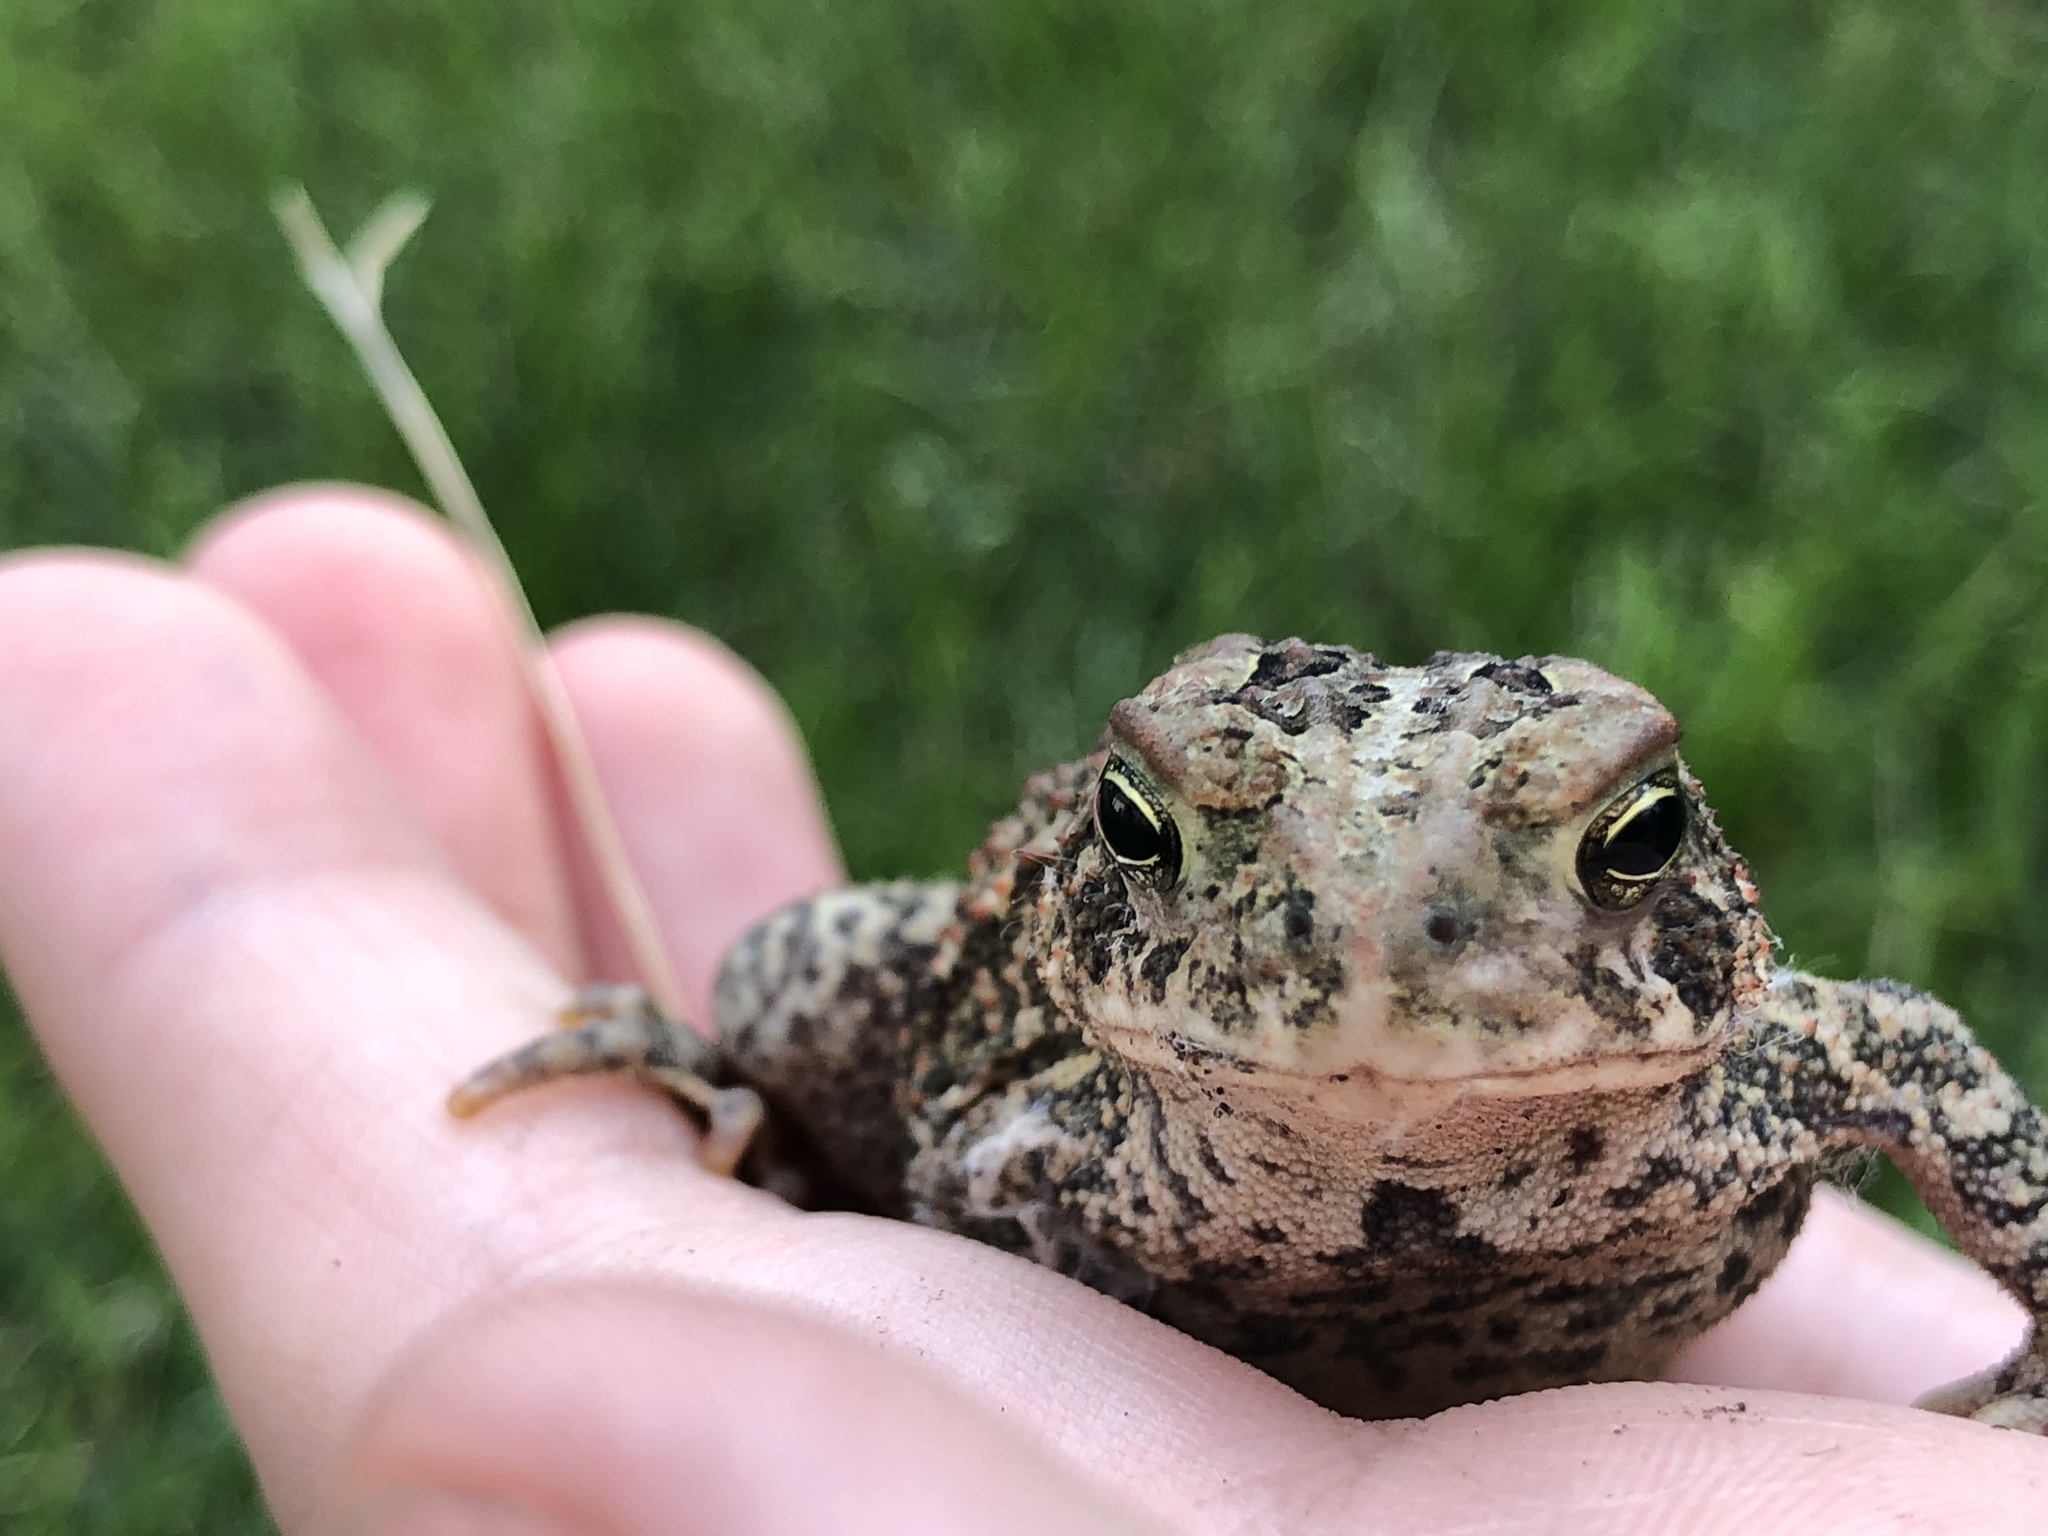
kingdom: Animalia
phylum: Chordata
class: Amphibia
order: Anura
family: Bufonidae
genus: Anaxyrus
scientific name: Anaxyrus americanus
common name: American toad
